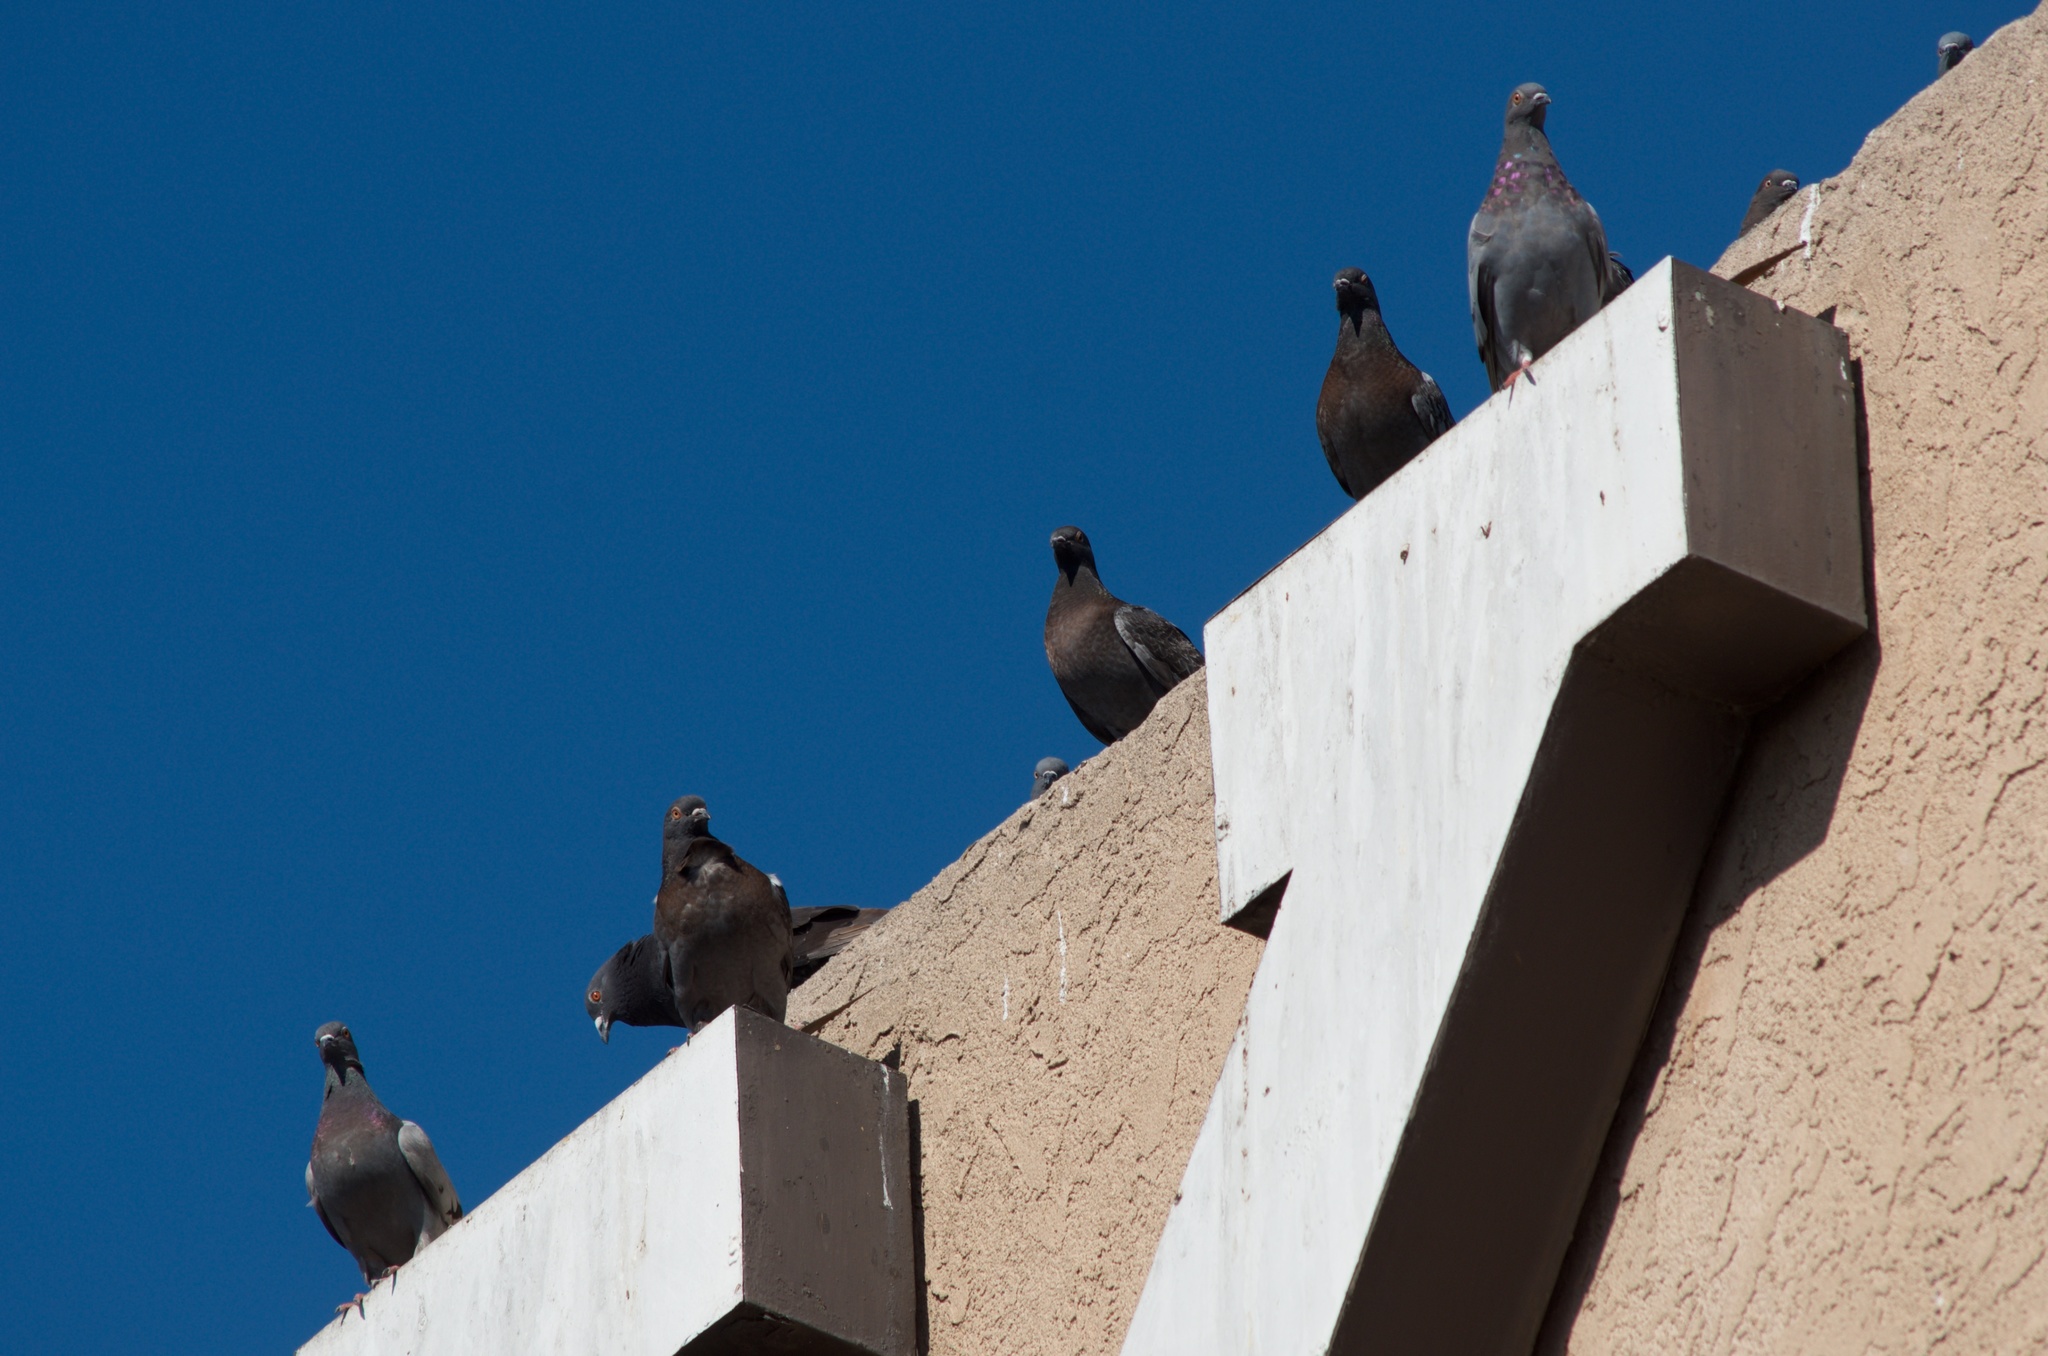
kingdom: Animalia
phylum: Chordata
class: Aves
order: Columbiformes
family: Columbidae
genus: Columba
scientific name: Columba livia
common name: Rock pigeon
